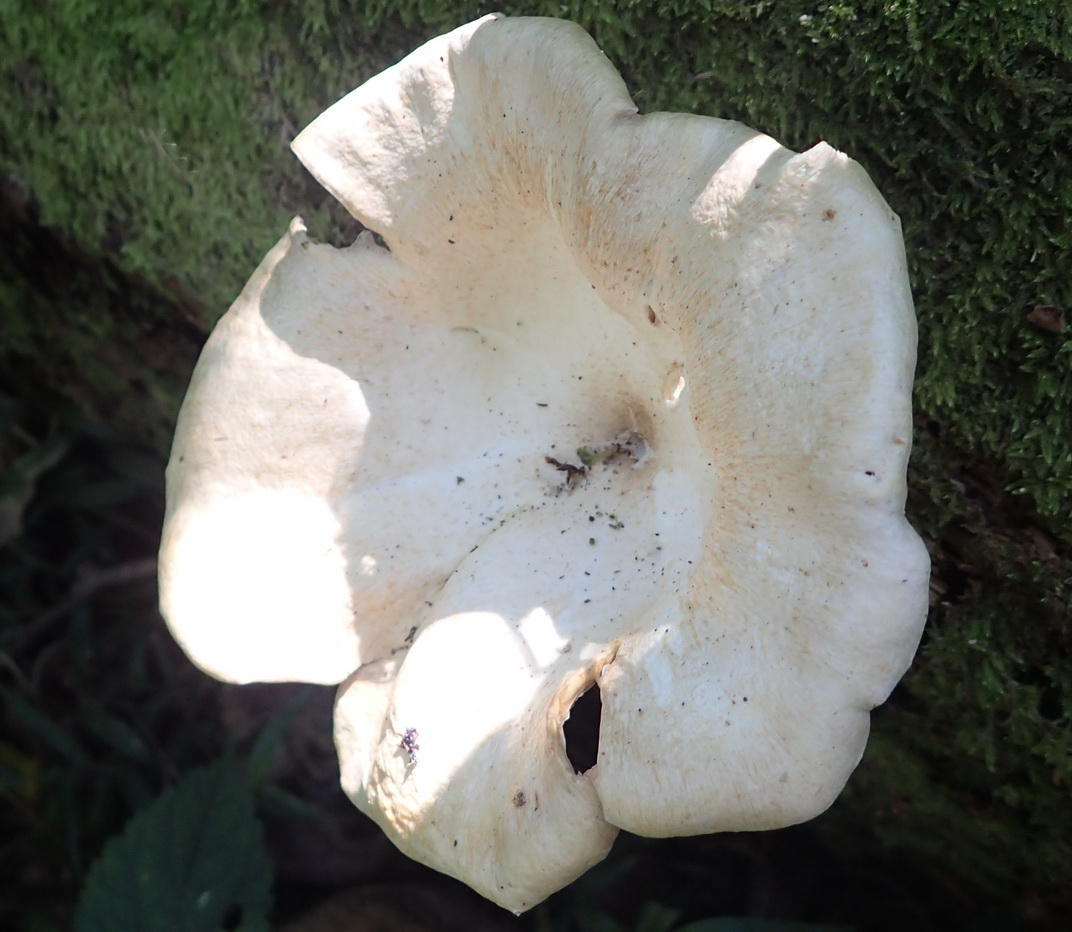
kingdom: Fungi
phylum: Basidiomycota
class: Agaricomycetes
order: Polyporales
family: Polyporaceae
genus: Lentinus
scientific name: Lentinus sajor-caju
